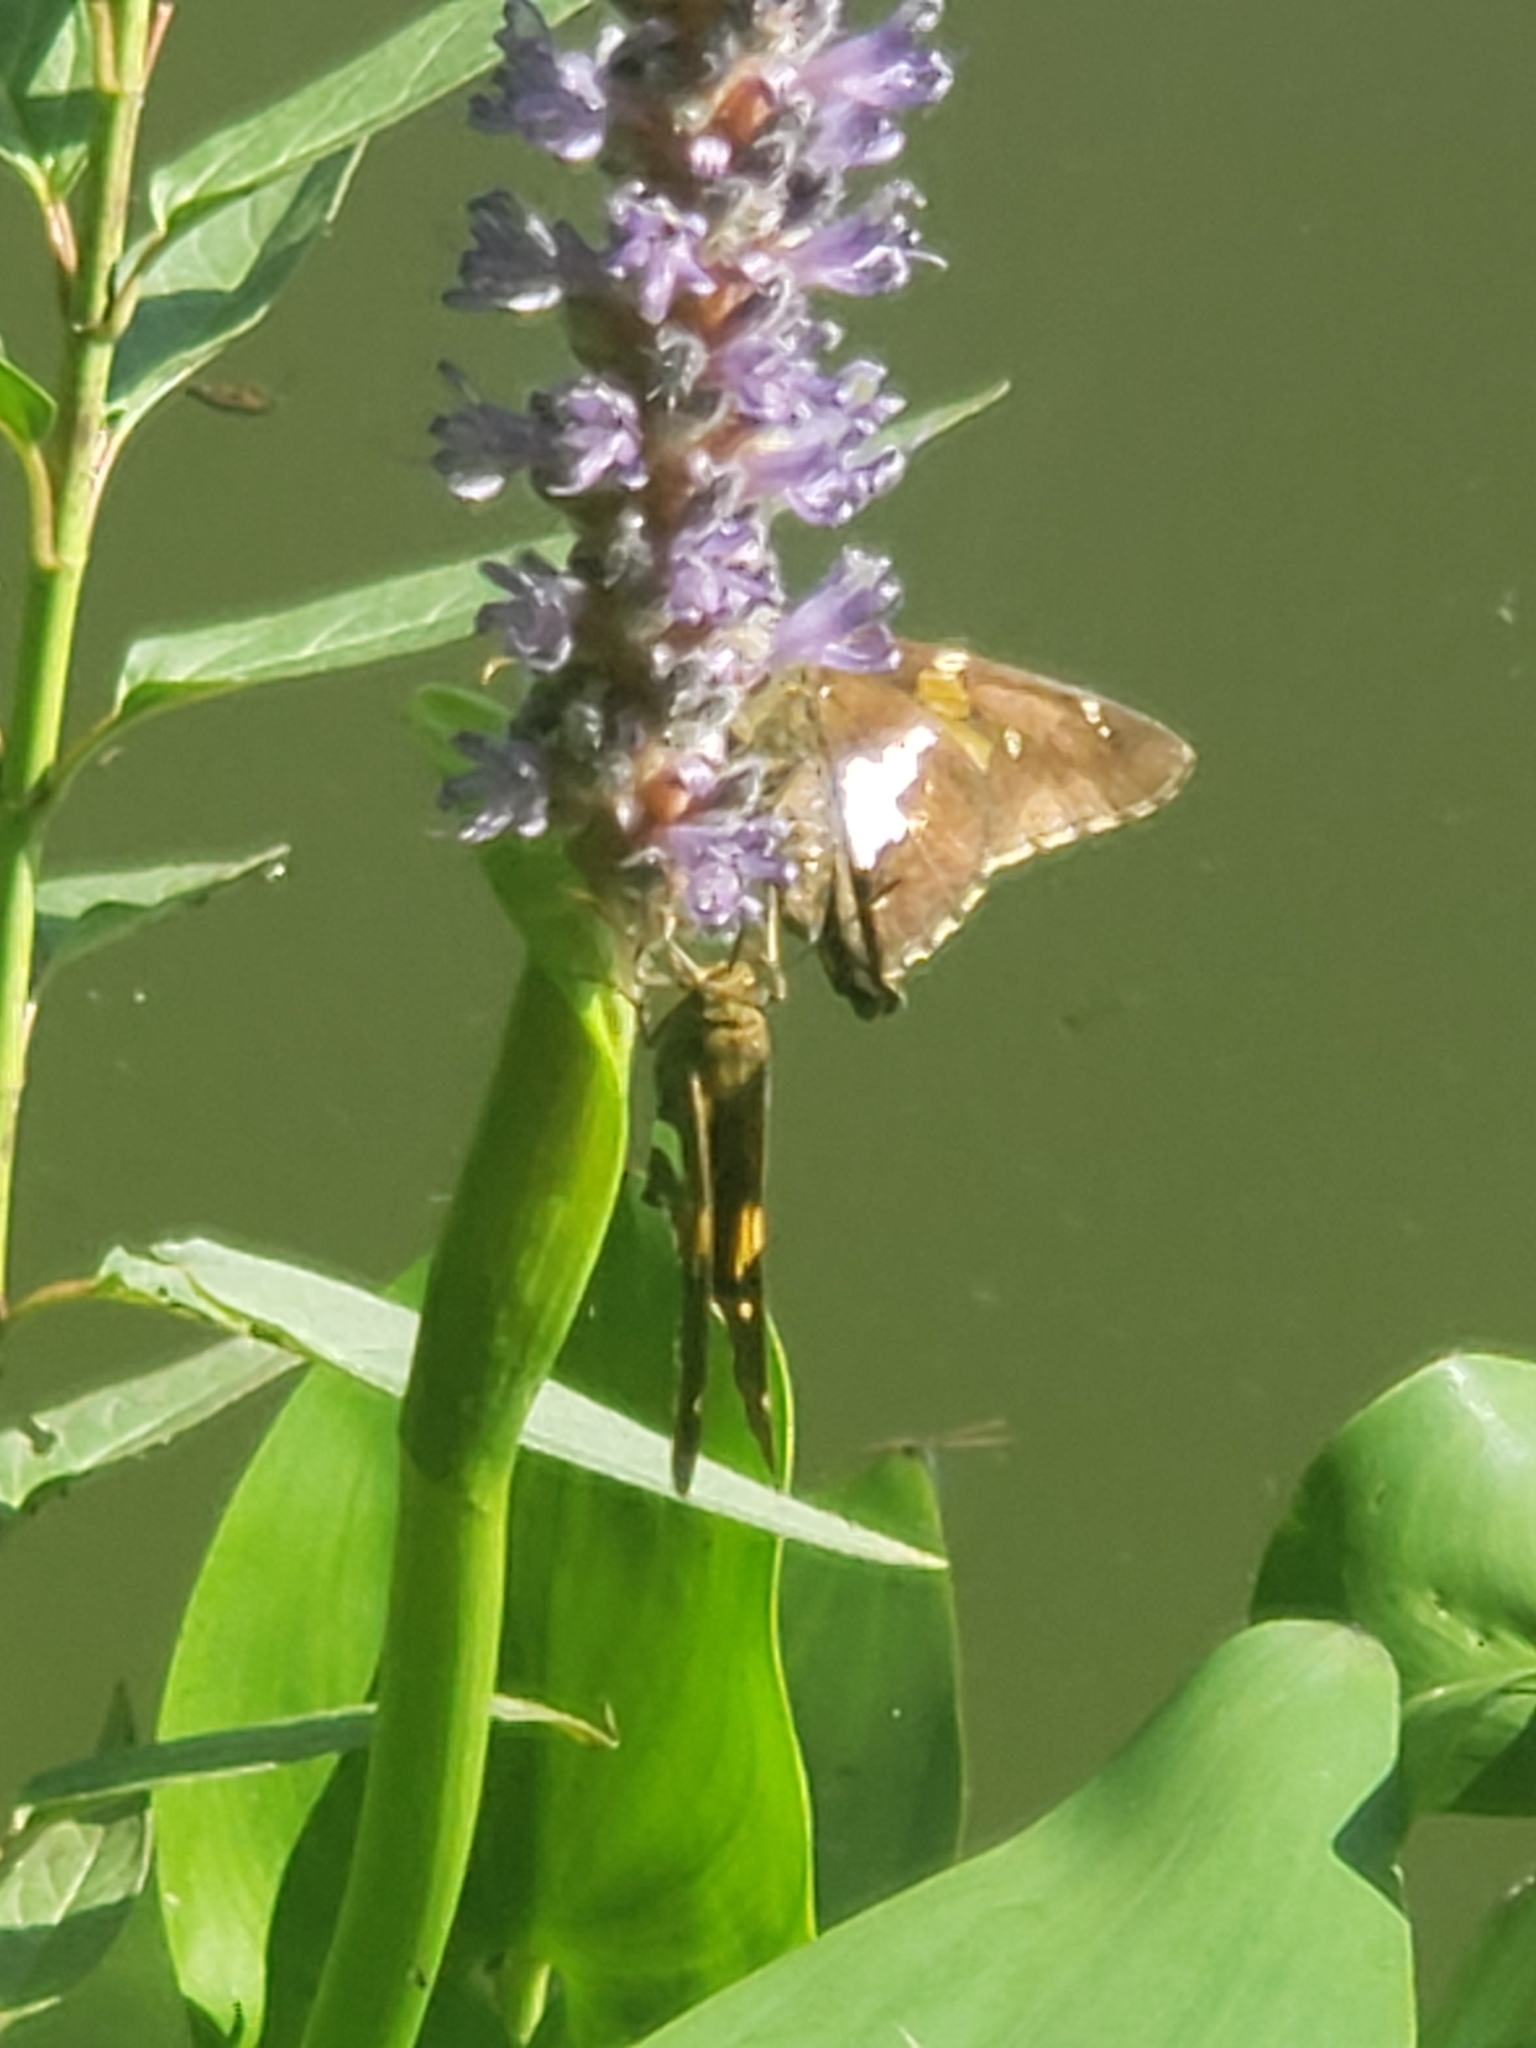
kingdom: Animalia
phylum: Arthropoda
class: Insecta
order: Lepidoptera
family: Hesperiidae
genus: Epargyreus
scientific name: Epargyreus clarus
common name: Silver-spotted skipper
